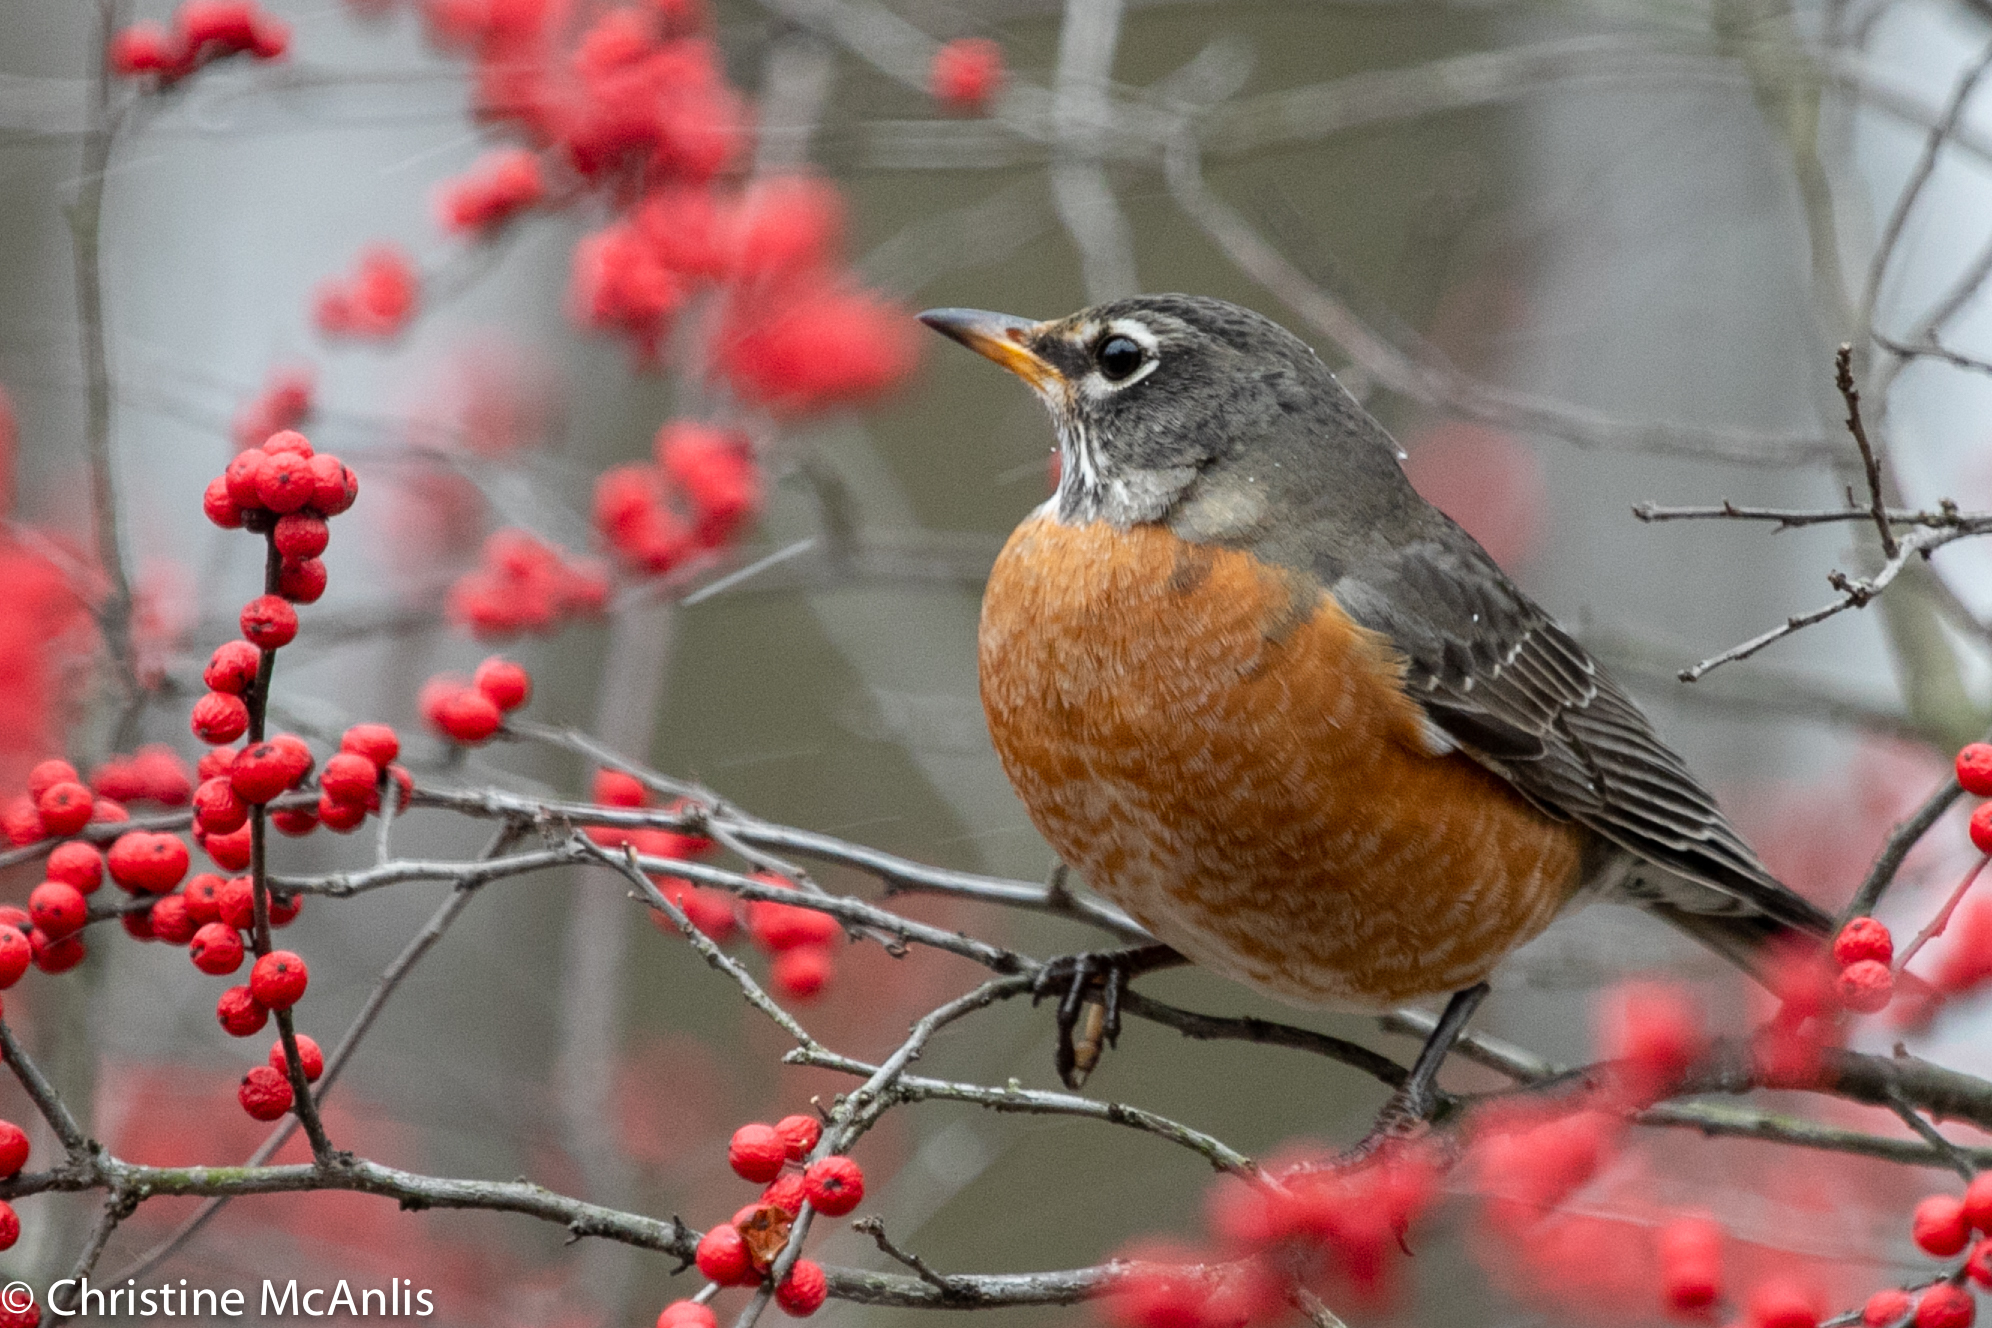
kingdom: Animalia
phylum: Chordata
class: Aves
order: Passeriformes
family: Turdidae
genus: Turdus
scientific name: Turdus migratorius
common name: American robin
